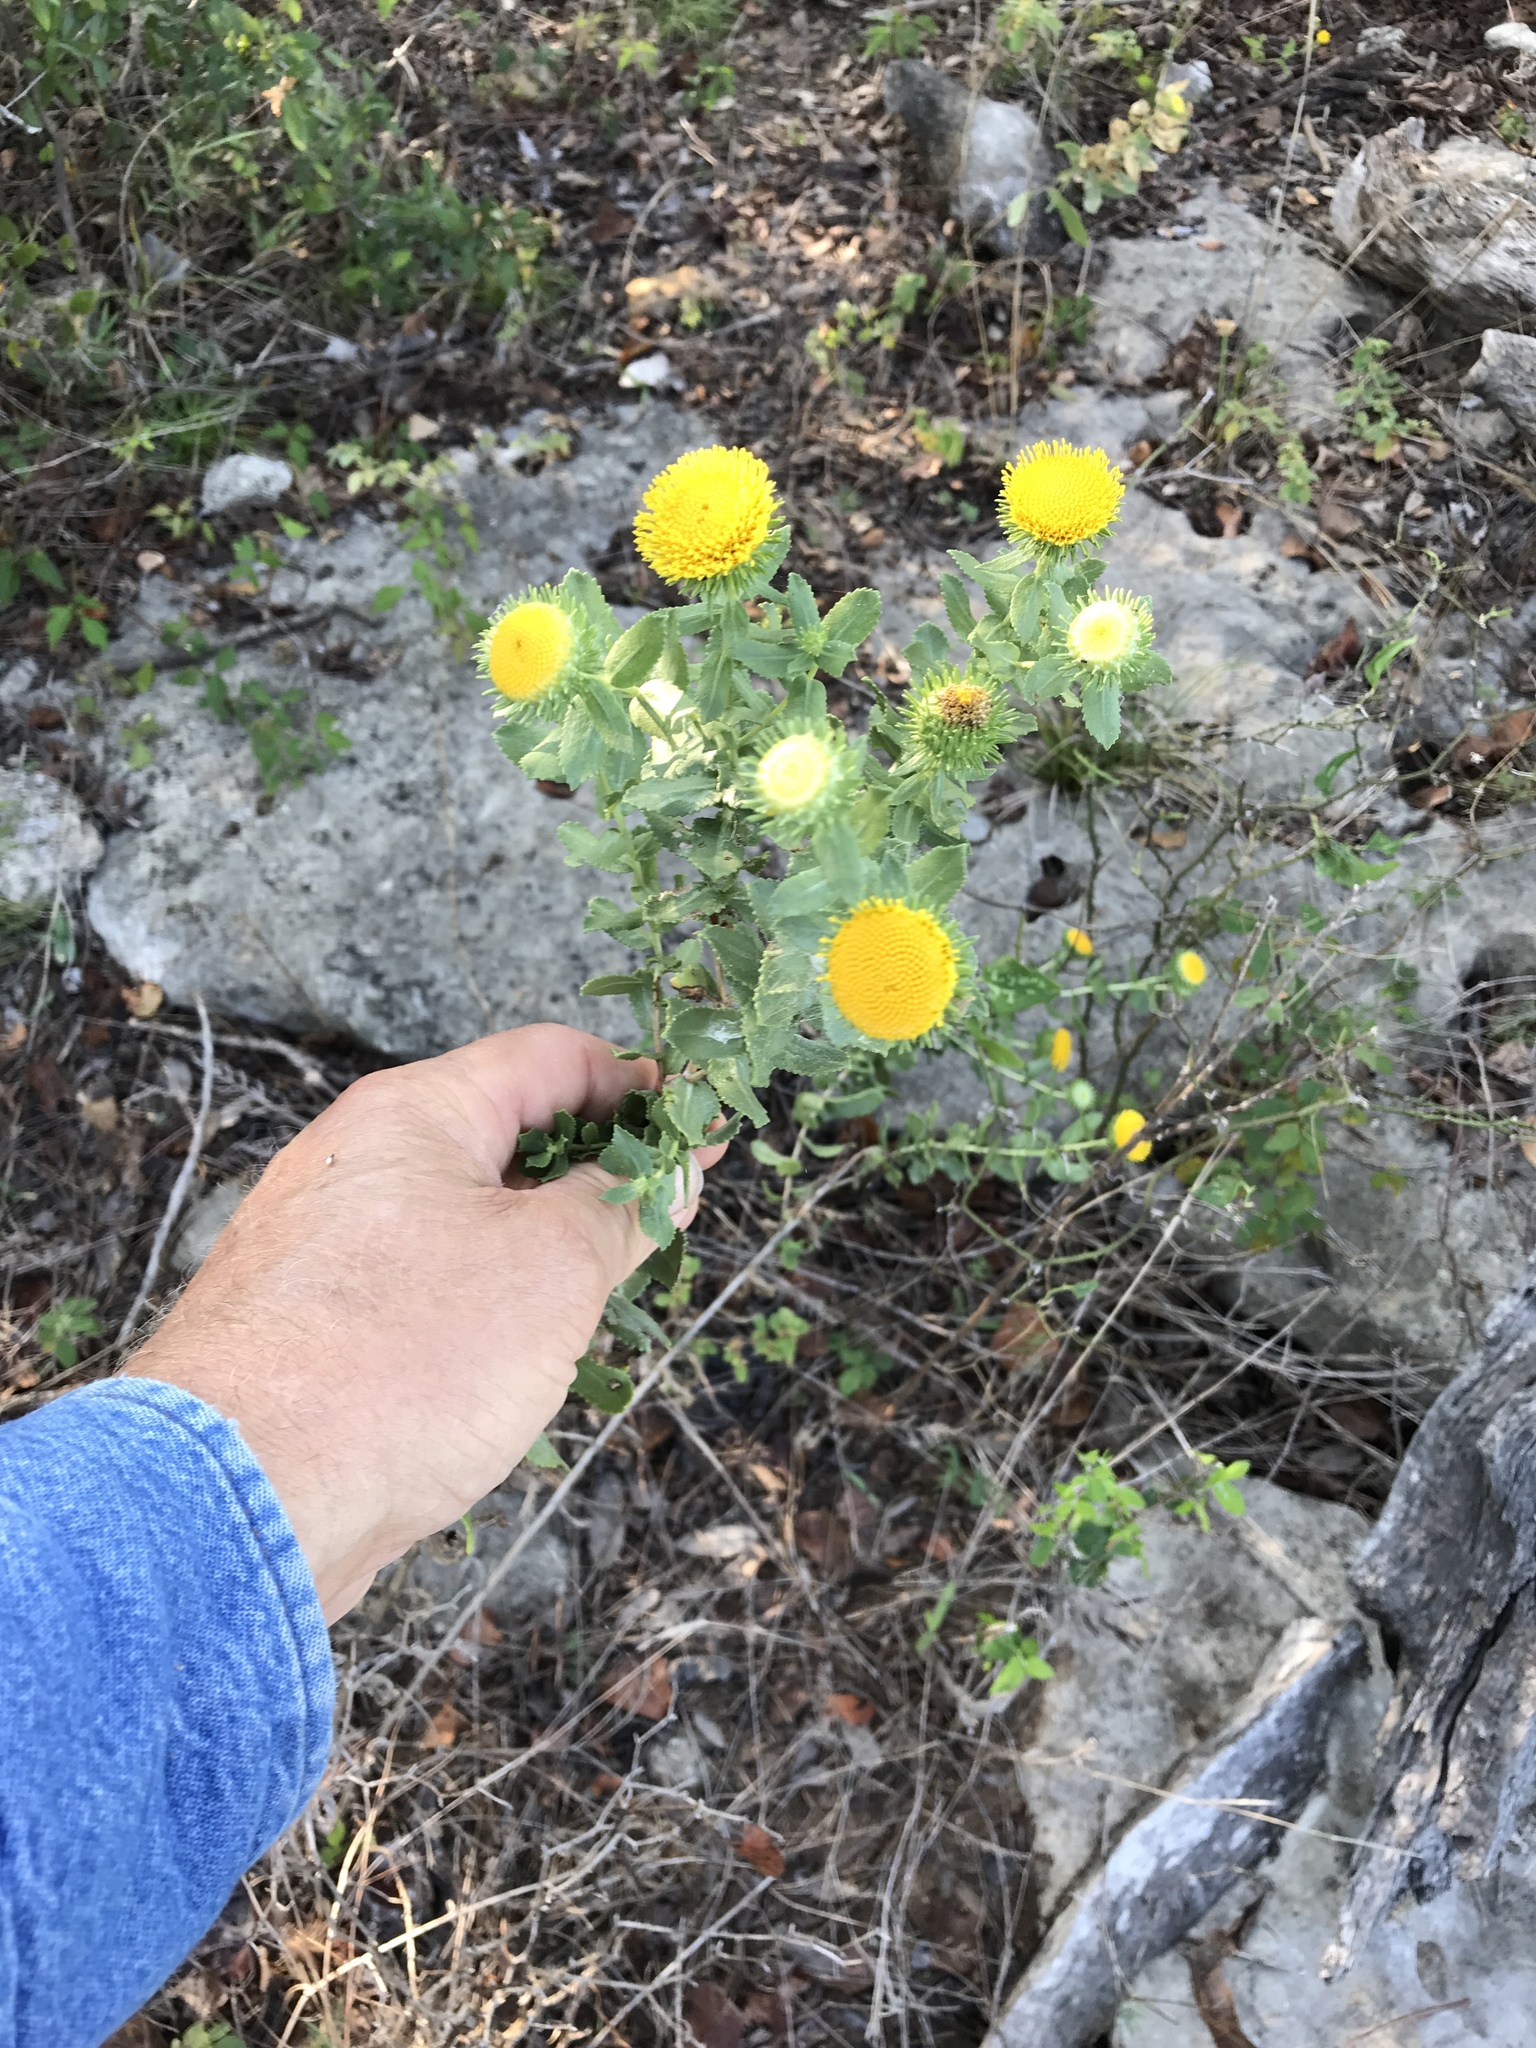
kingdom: Plantae
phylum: Tracheophyta
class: Magnoliopsida
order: Asterales
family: Asteraceae
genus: Grindelia
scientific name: Grindelia nuda
